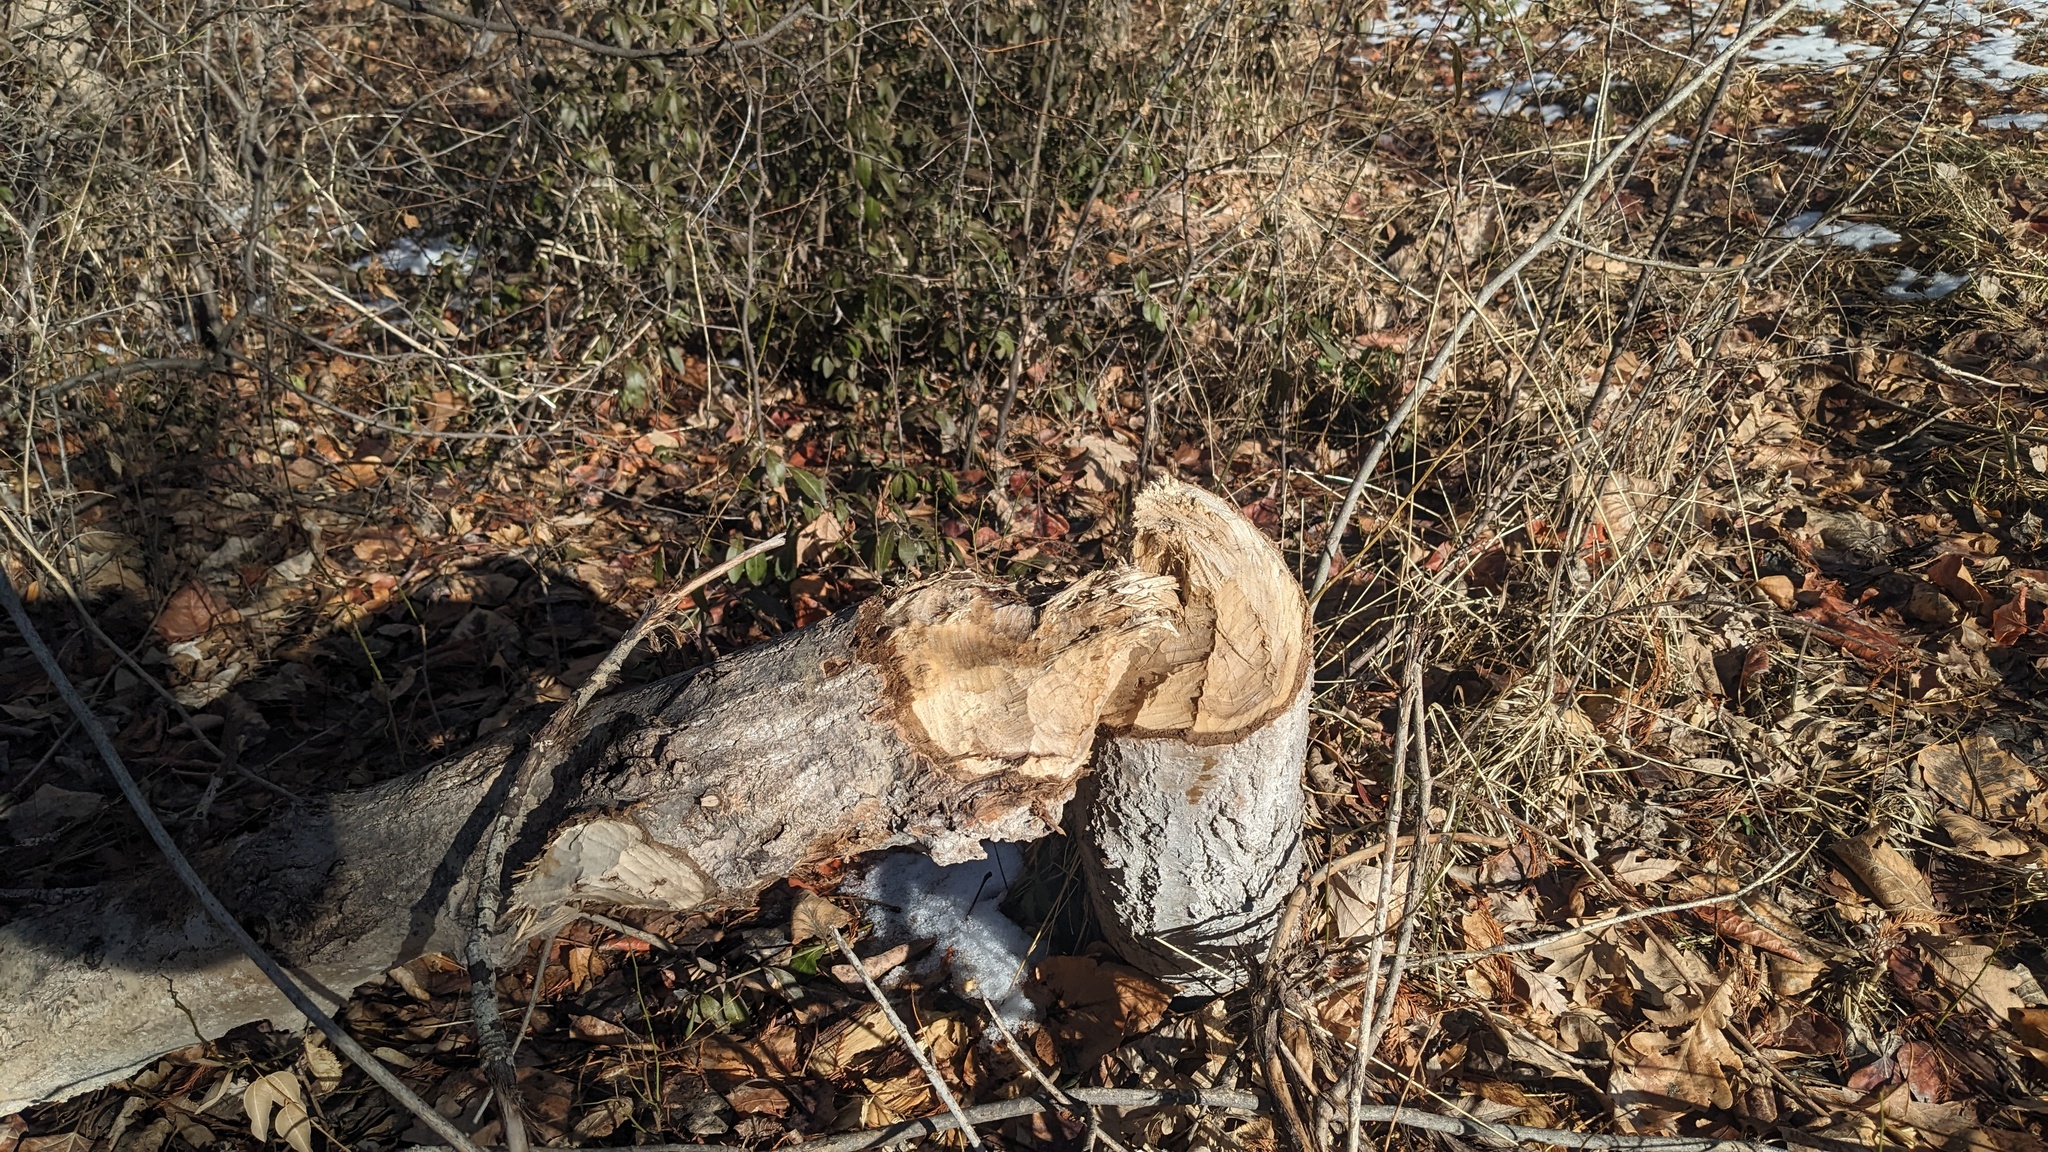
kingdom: Animalia
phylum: Chordata
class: Mammalia
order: Rodentia
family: Castoridae
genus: Castor
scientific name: Castor canadensis
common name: American beaver
